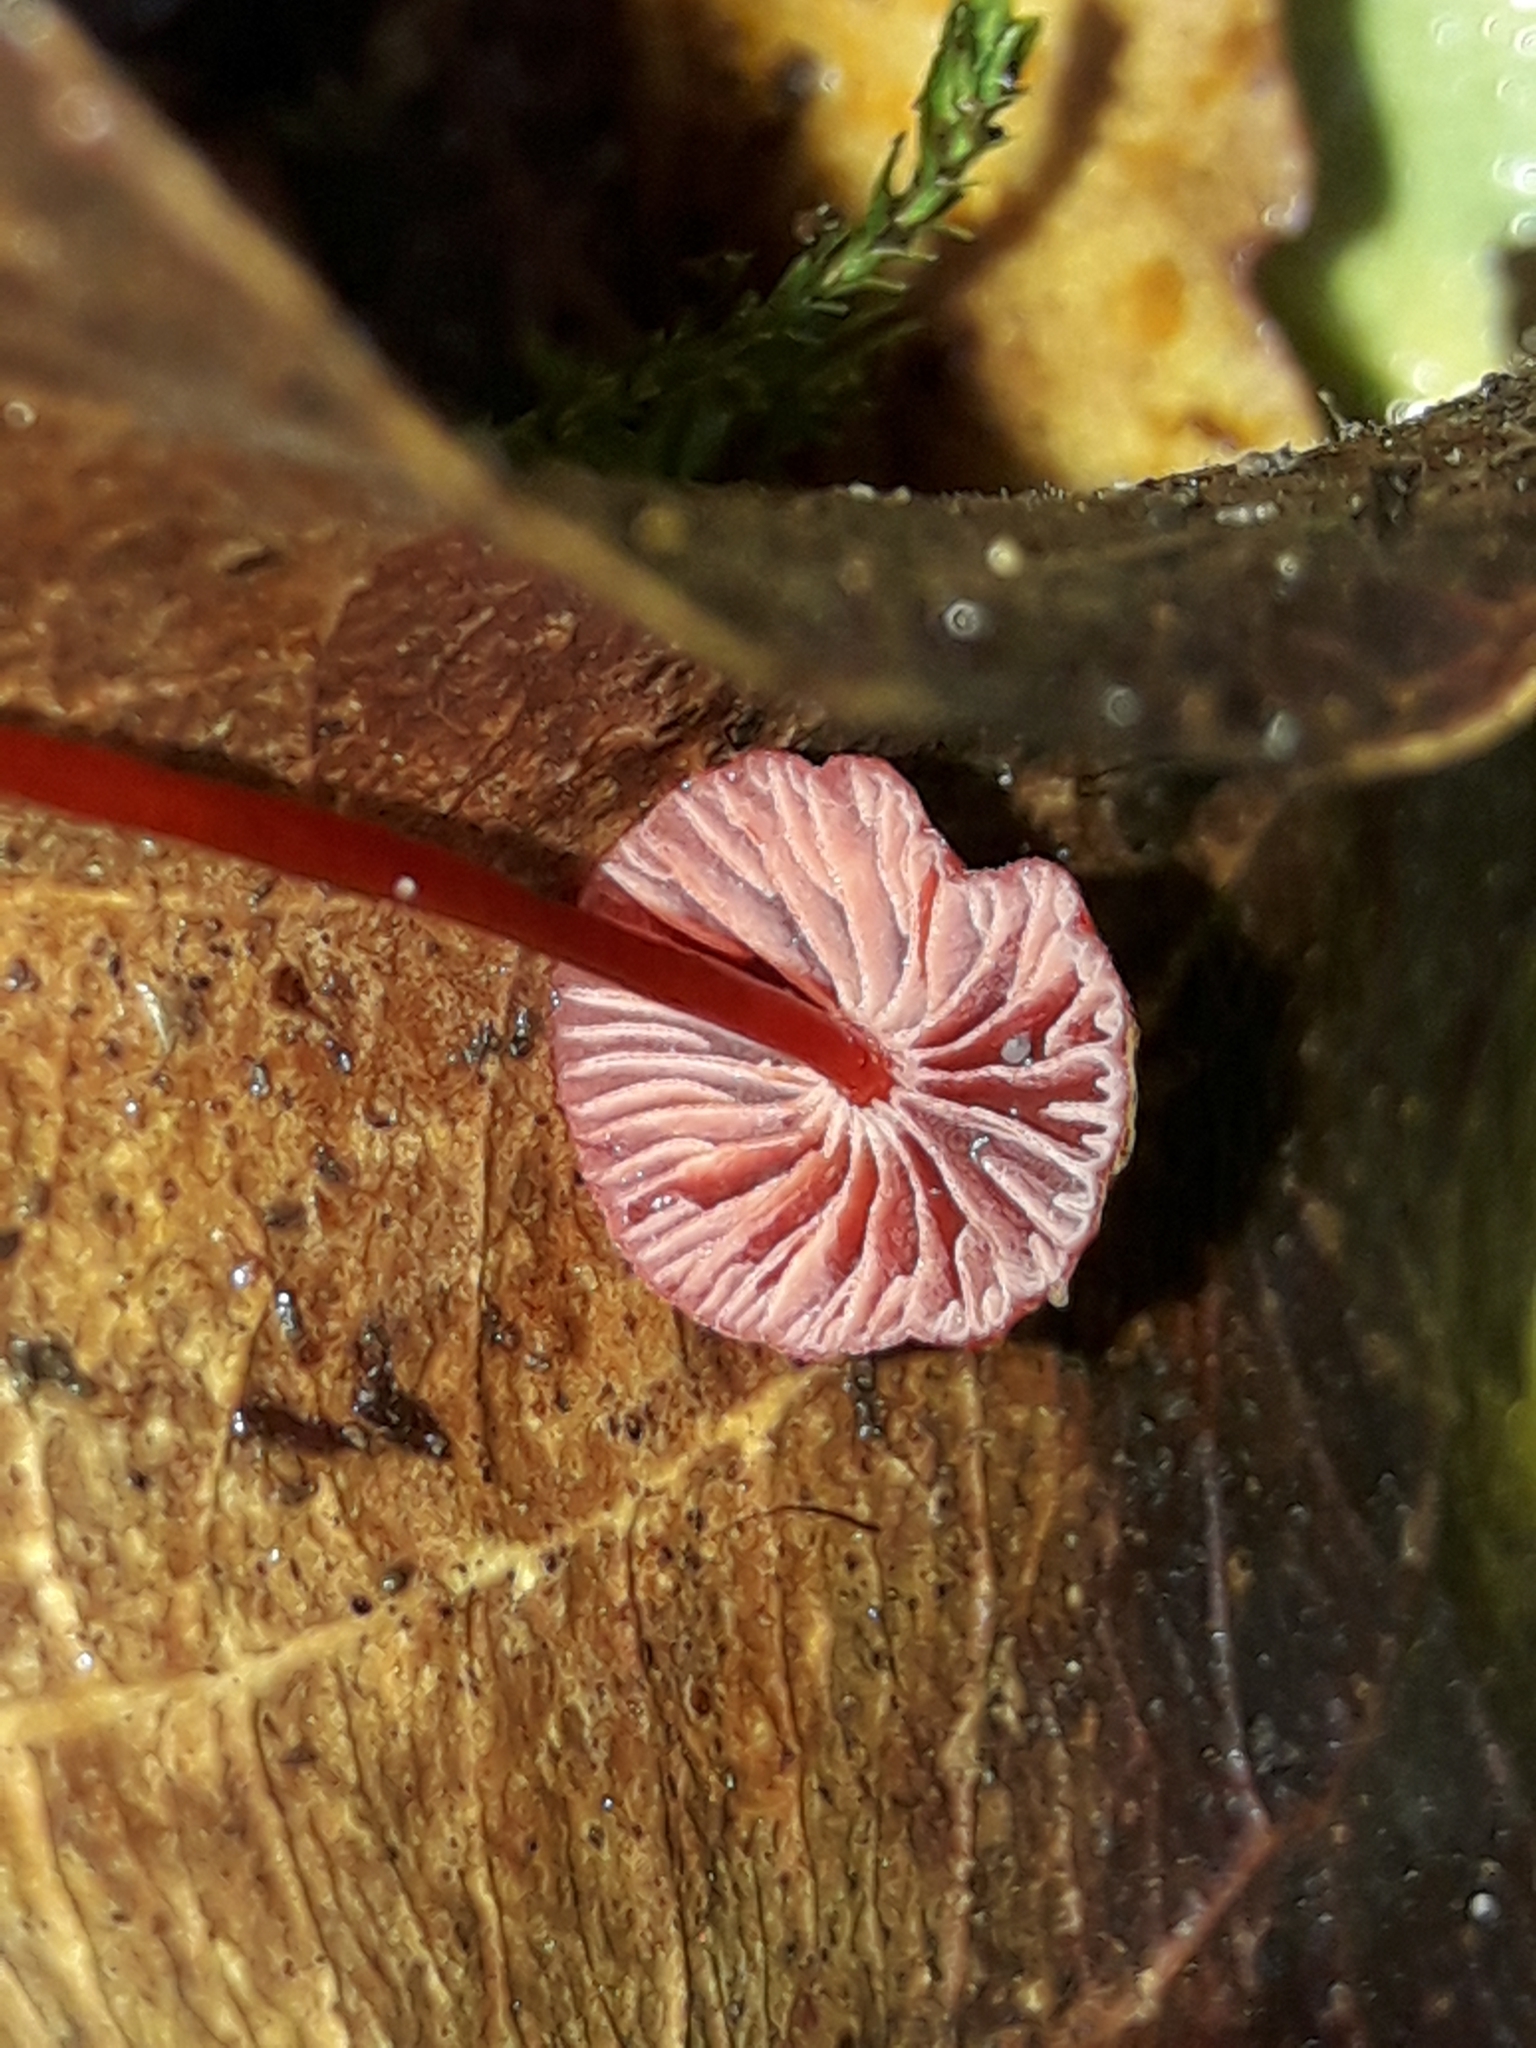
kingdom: Fungi
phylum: Basidiomycota
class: Agaricomycetes
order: Agaricales
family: Mycenaceae
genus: Cruentomycena
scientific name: Cruentomycena viscidocruenta
